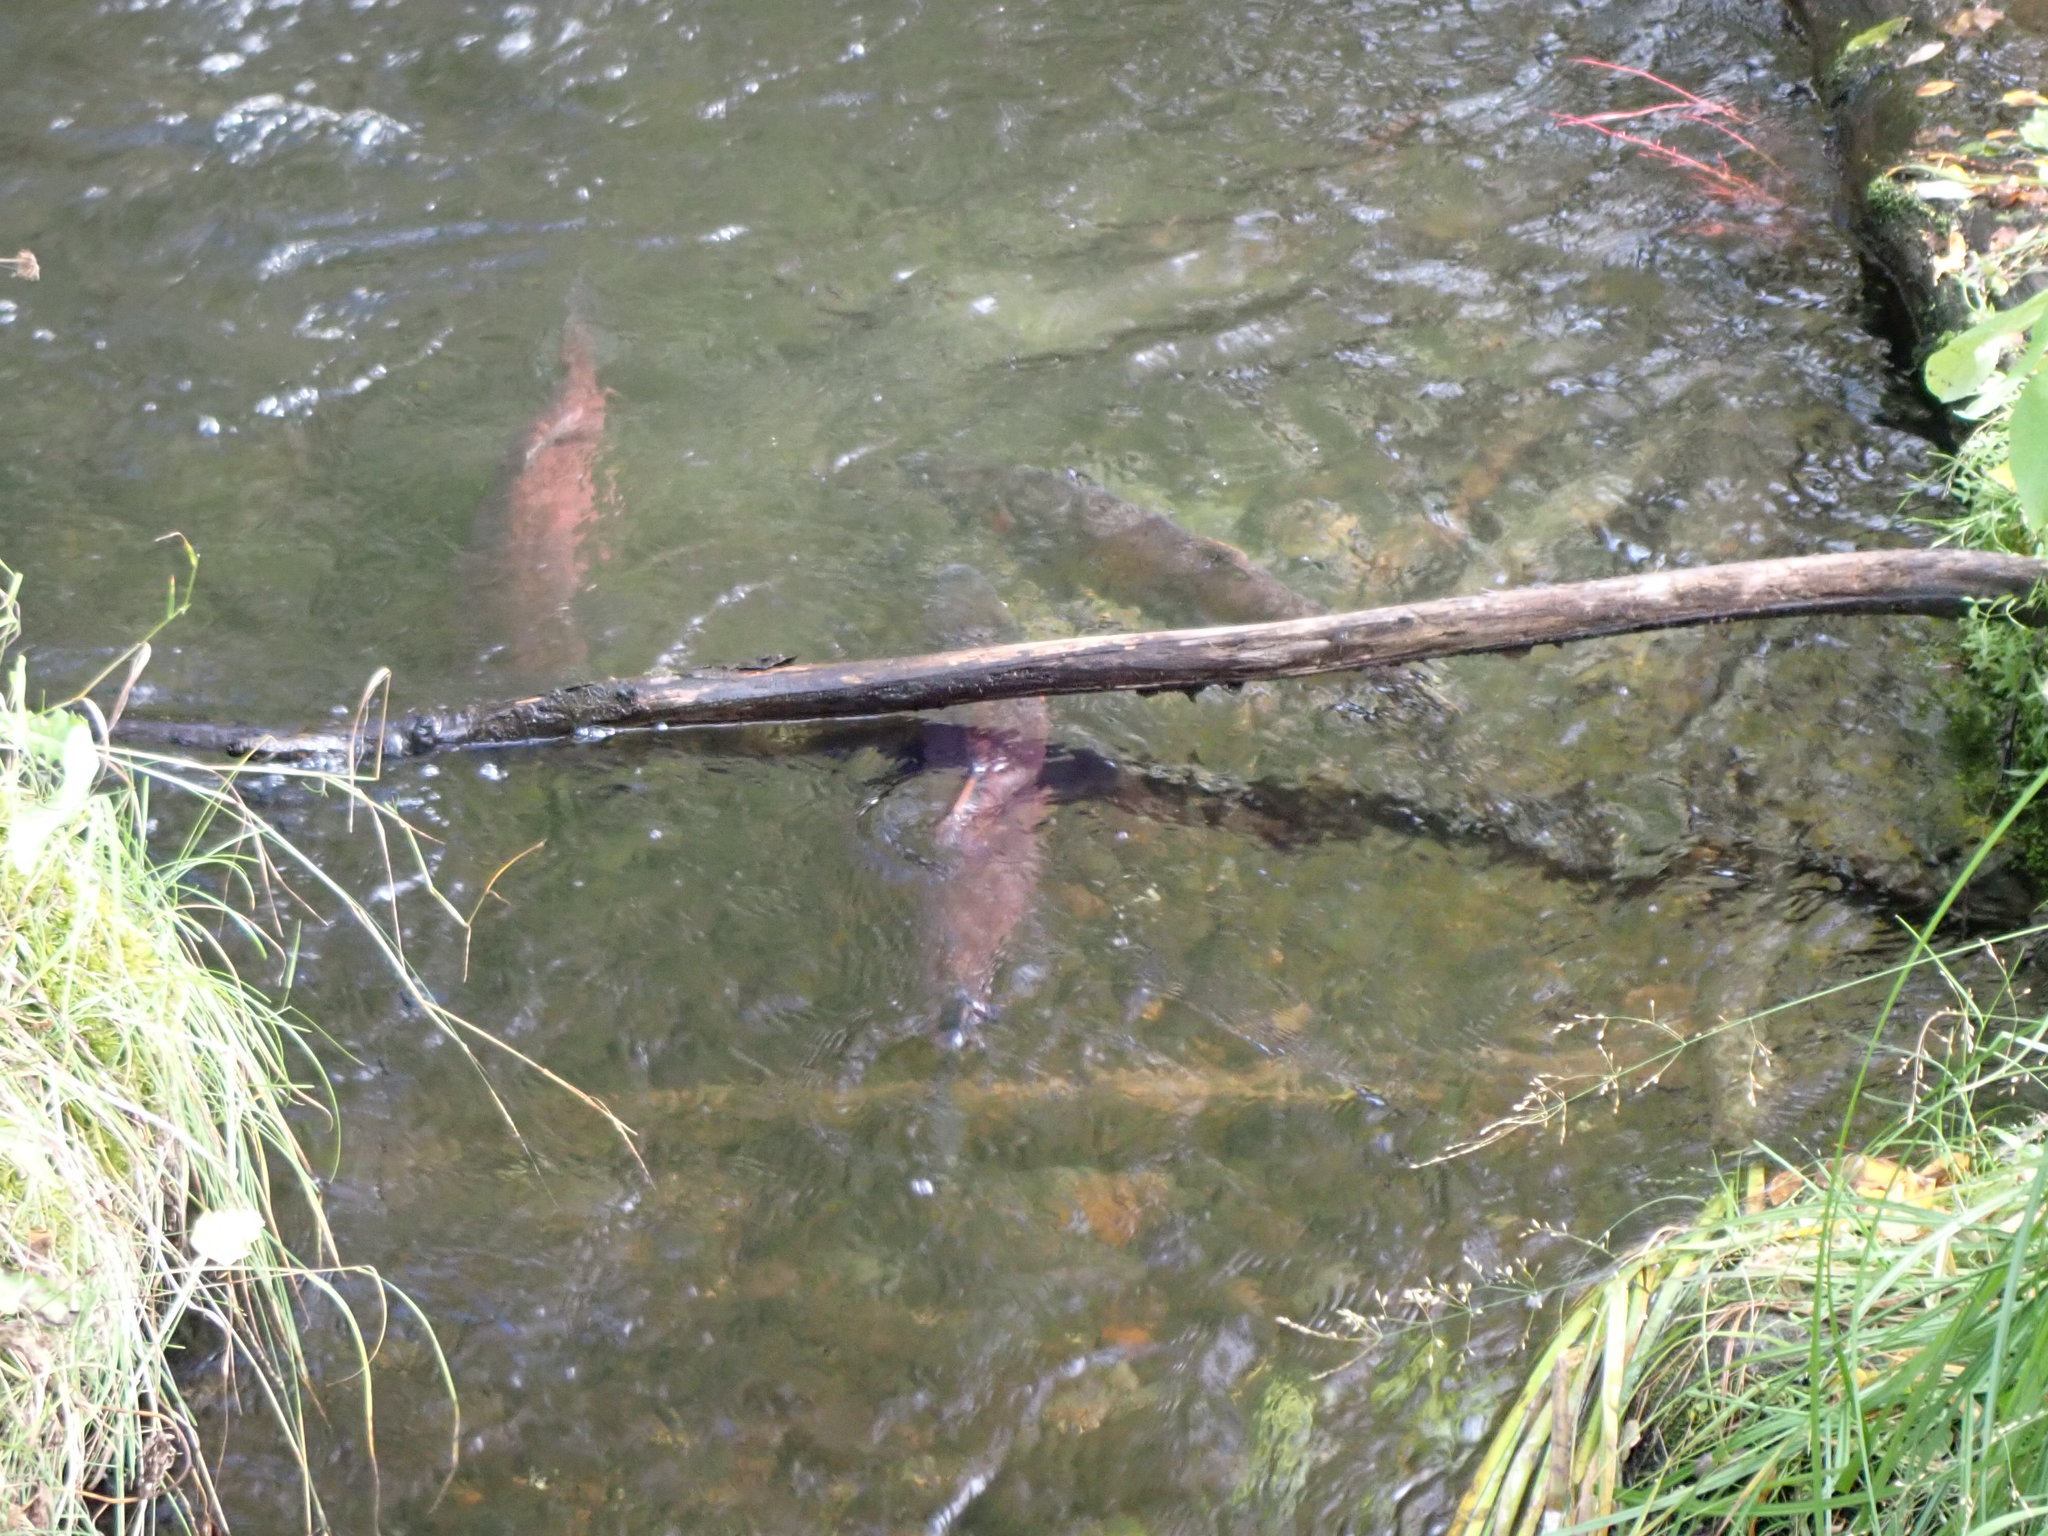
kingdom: Animalia
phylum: Chordata
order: Salmoniformes
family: Salmonidae
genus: Oncorhynchus
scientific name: Oncorhynchus kisutch
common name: Coho salmon
